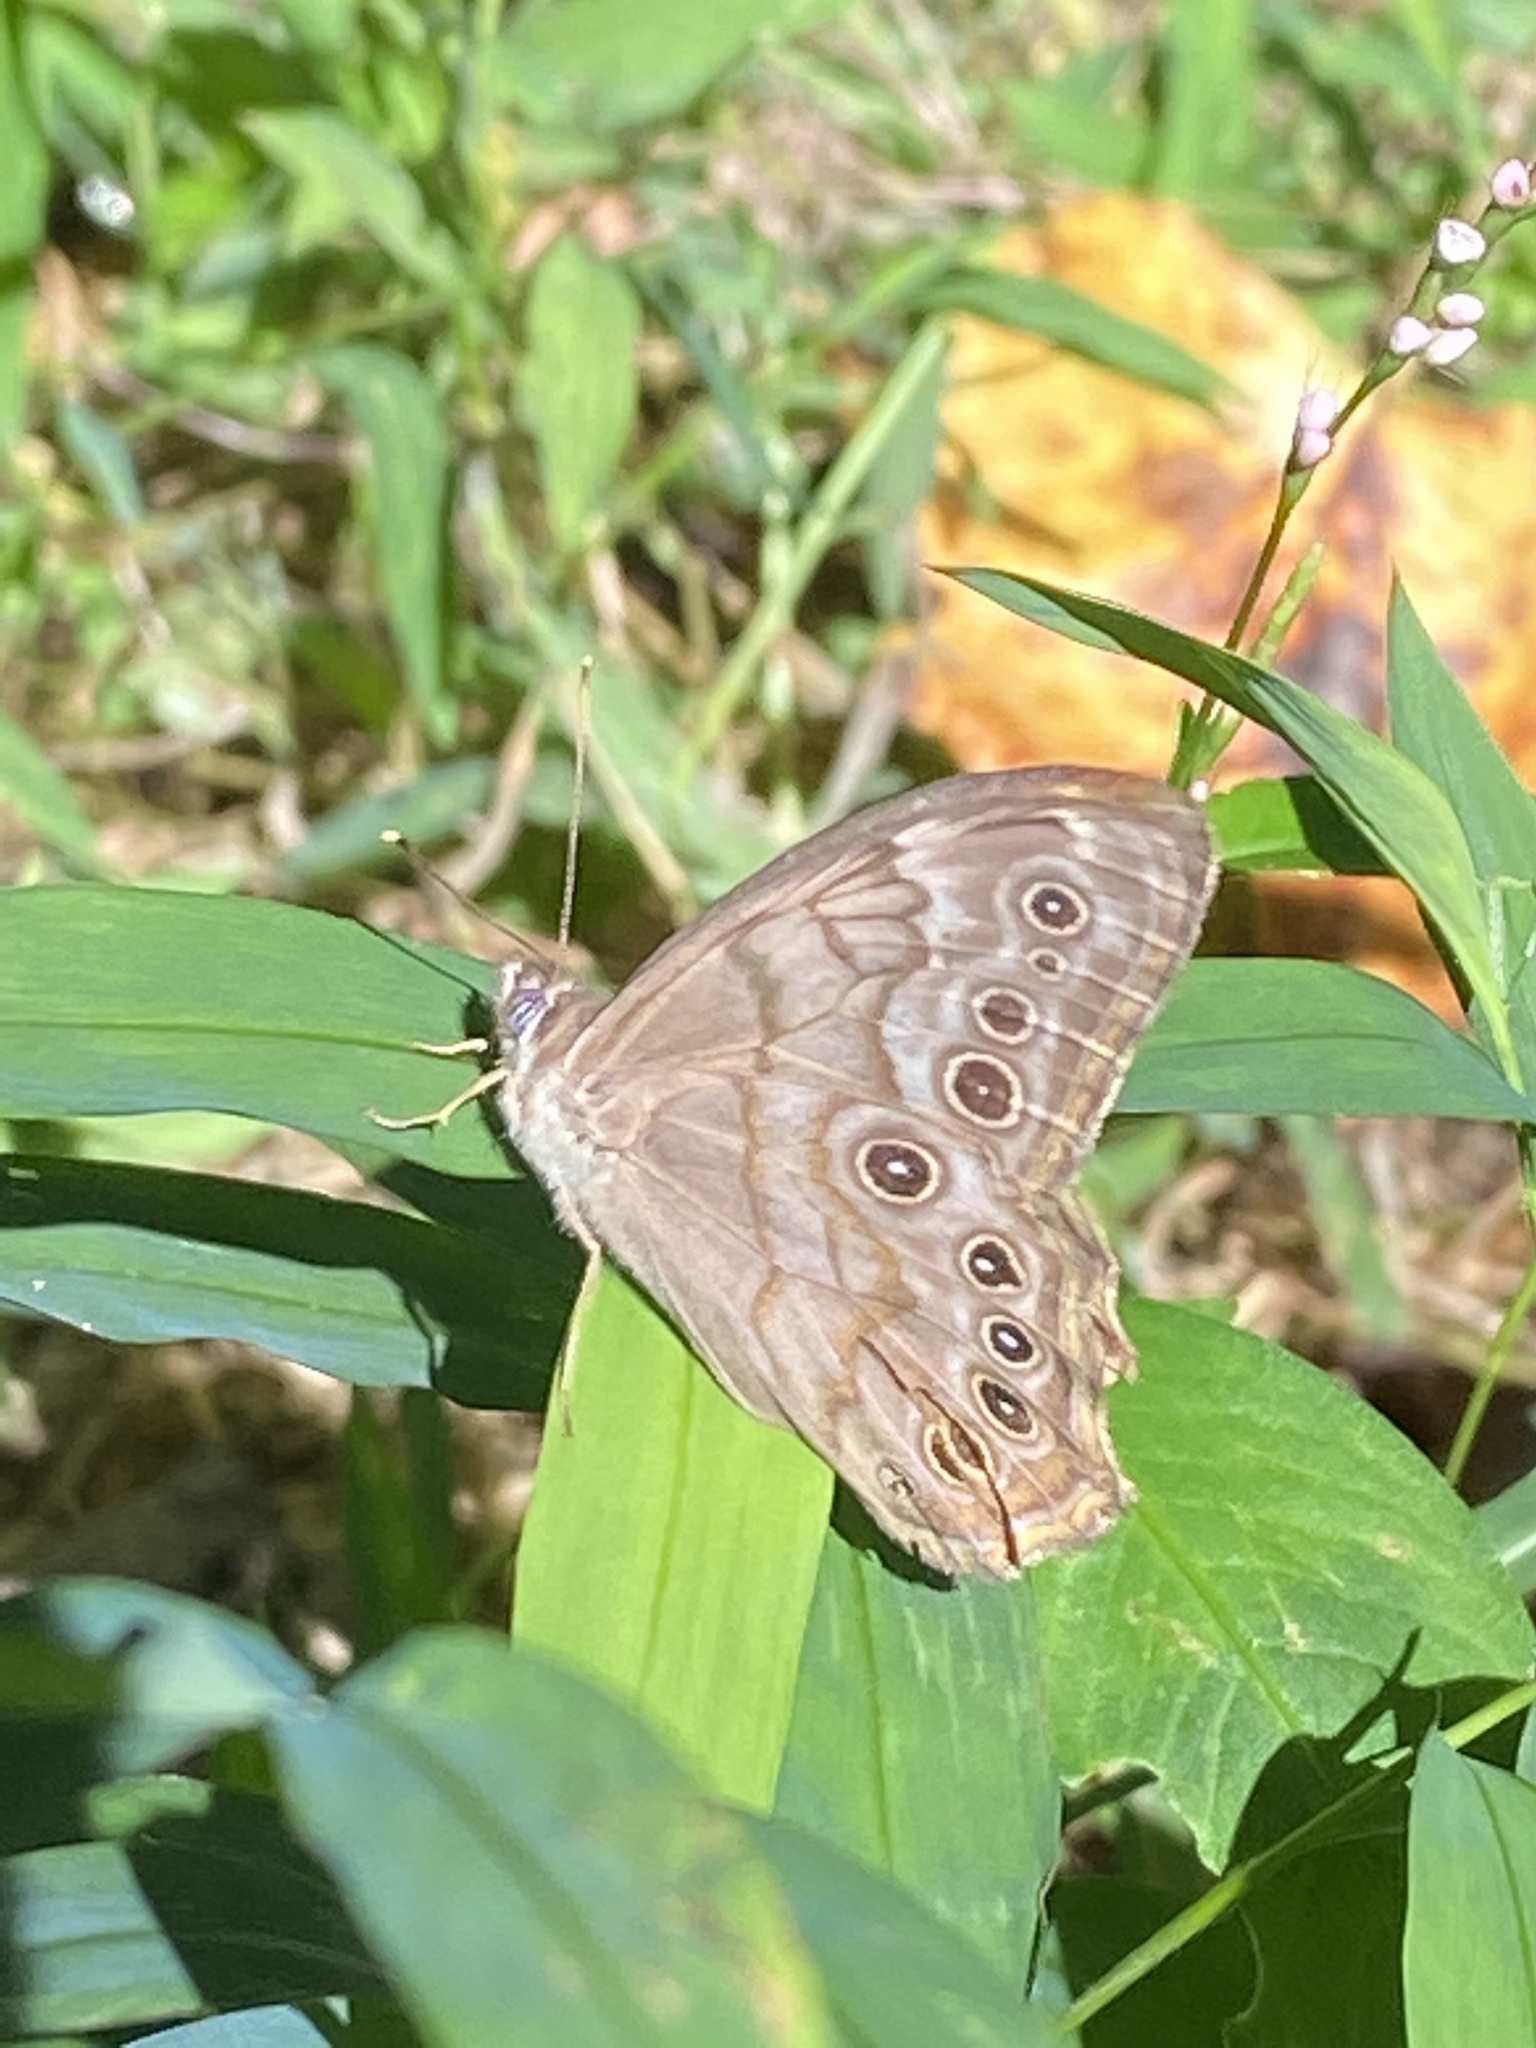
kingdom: Animalia
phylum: Arthropoda
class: Insecta
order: Lepidoptera
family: Nymphalidae
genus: Lethe
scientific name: Lethe creola
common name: Creole pearly-eye
